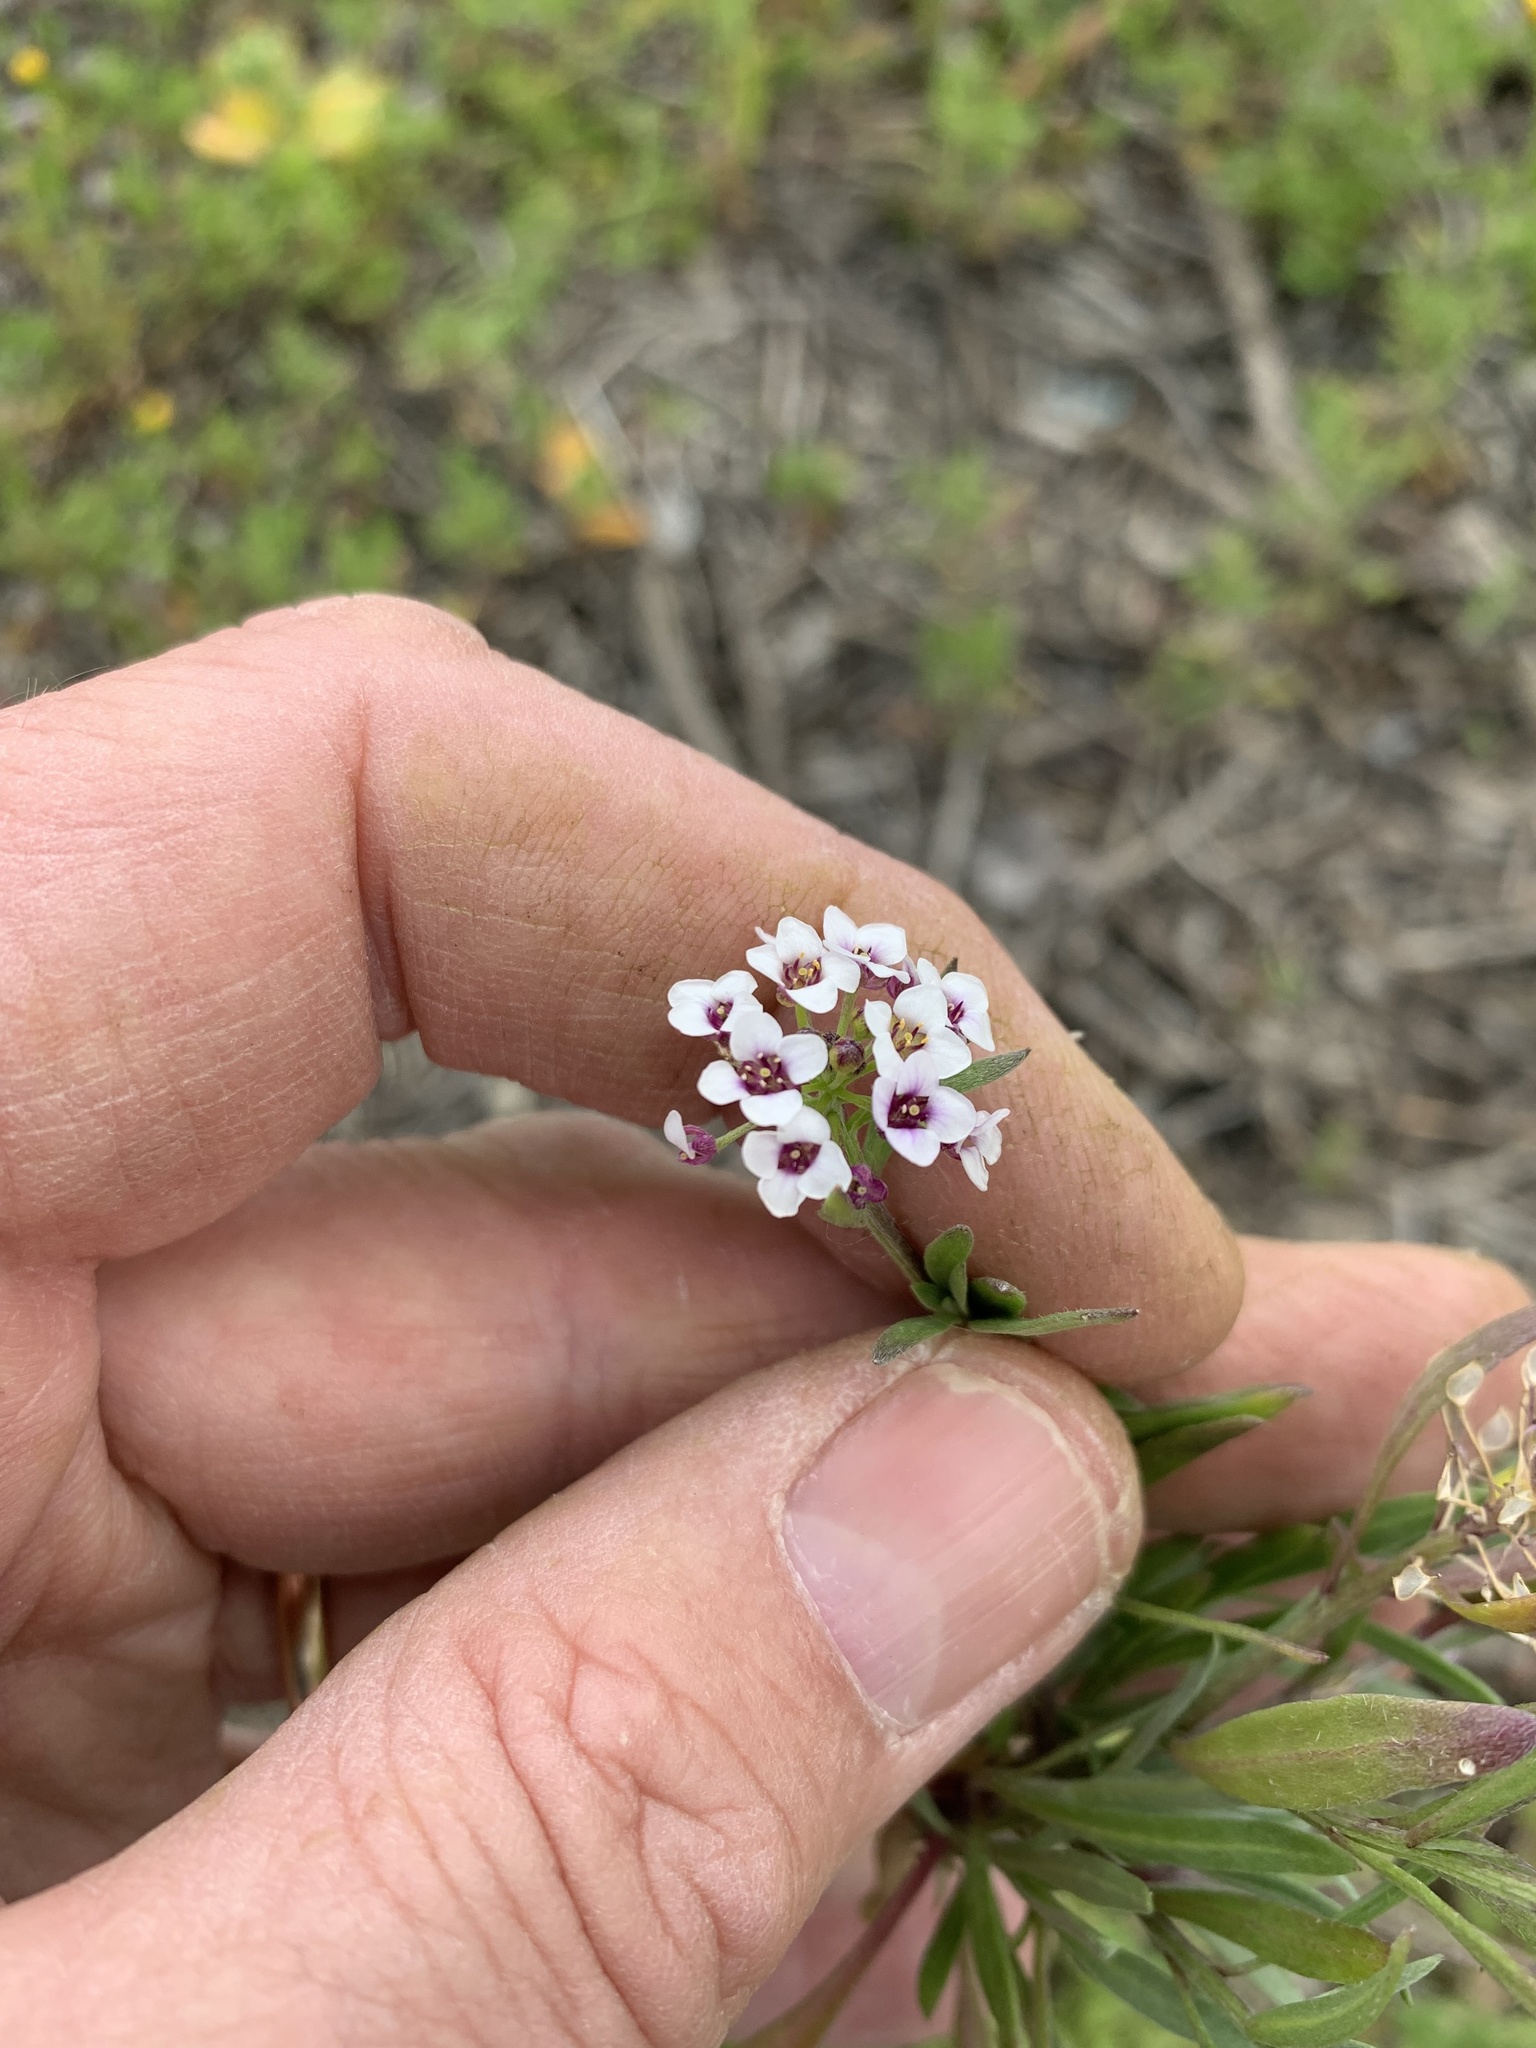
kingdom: Plantae
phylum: Tracheophyta
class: Magnoliopsida
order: Brassicales
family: Brassicaceae
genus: Lobularia
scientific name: Lobularia maritima
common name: Sweet alison
